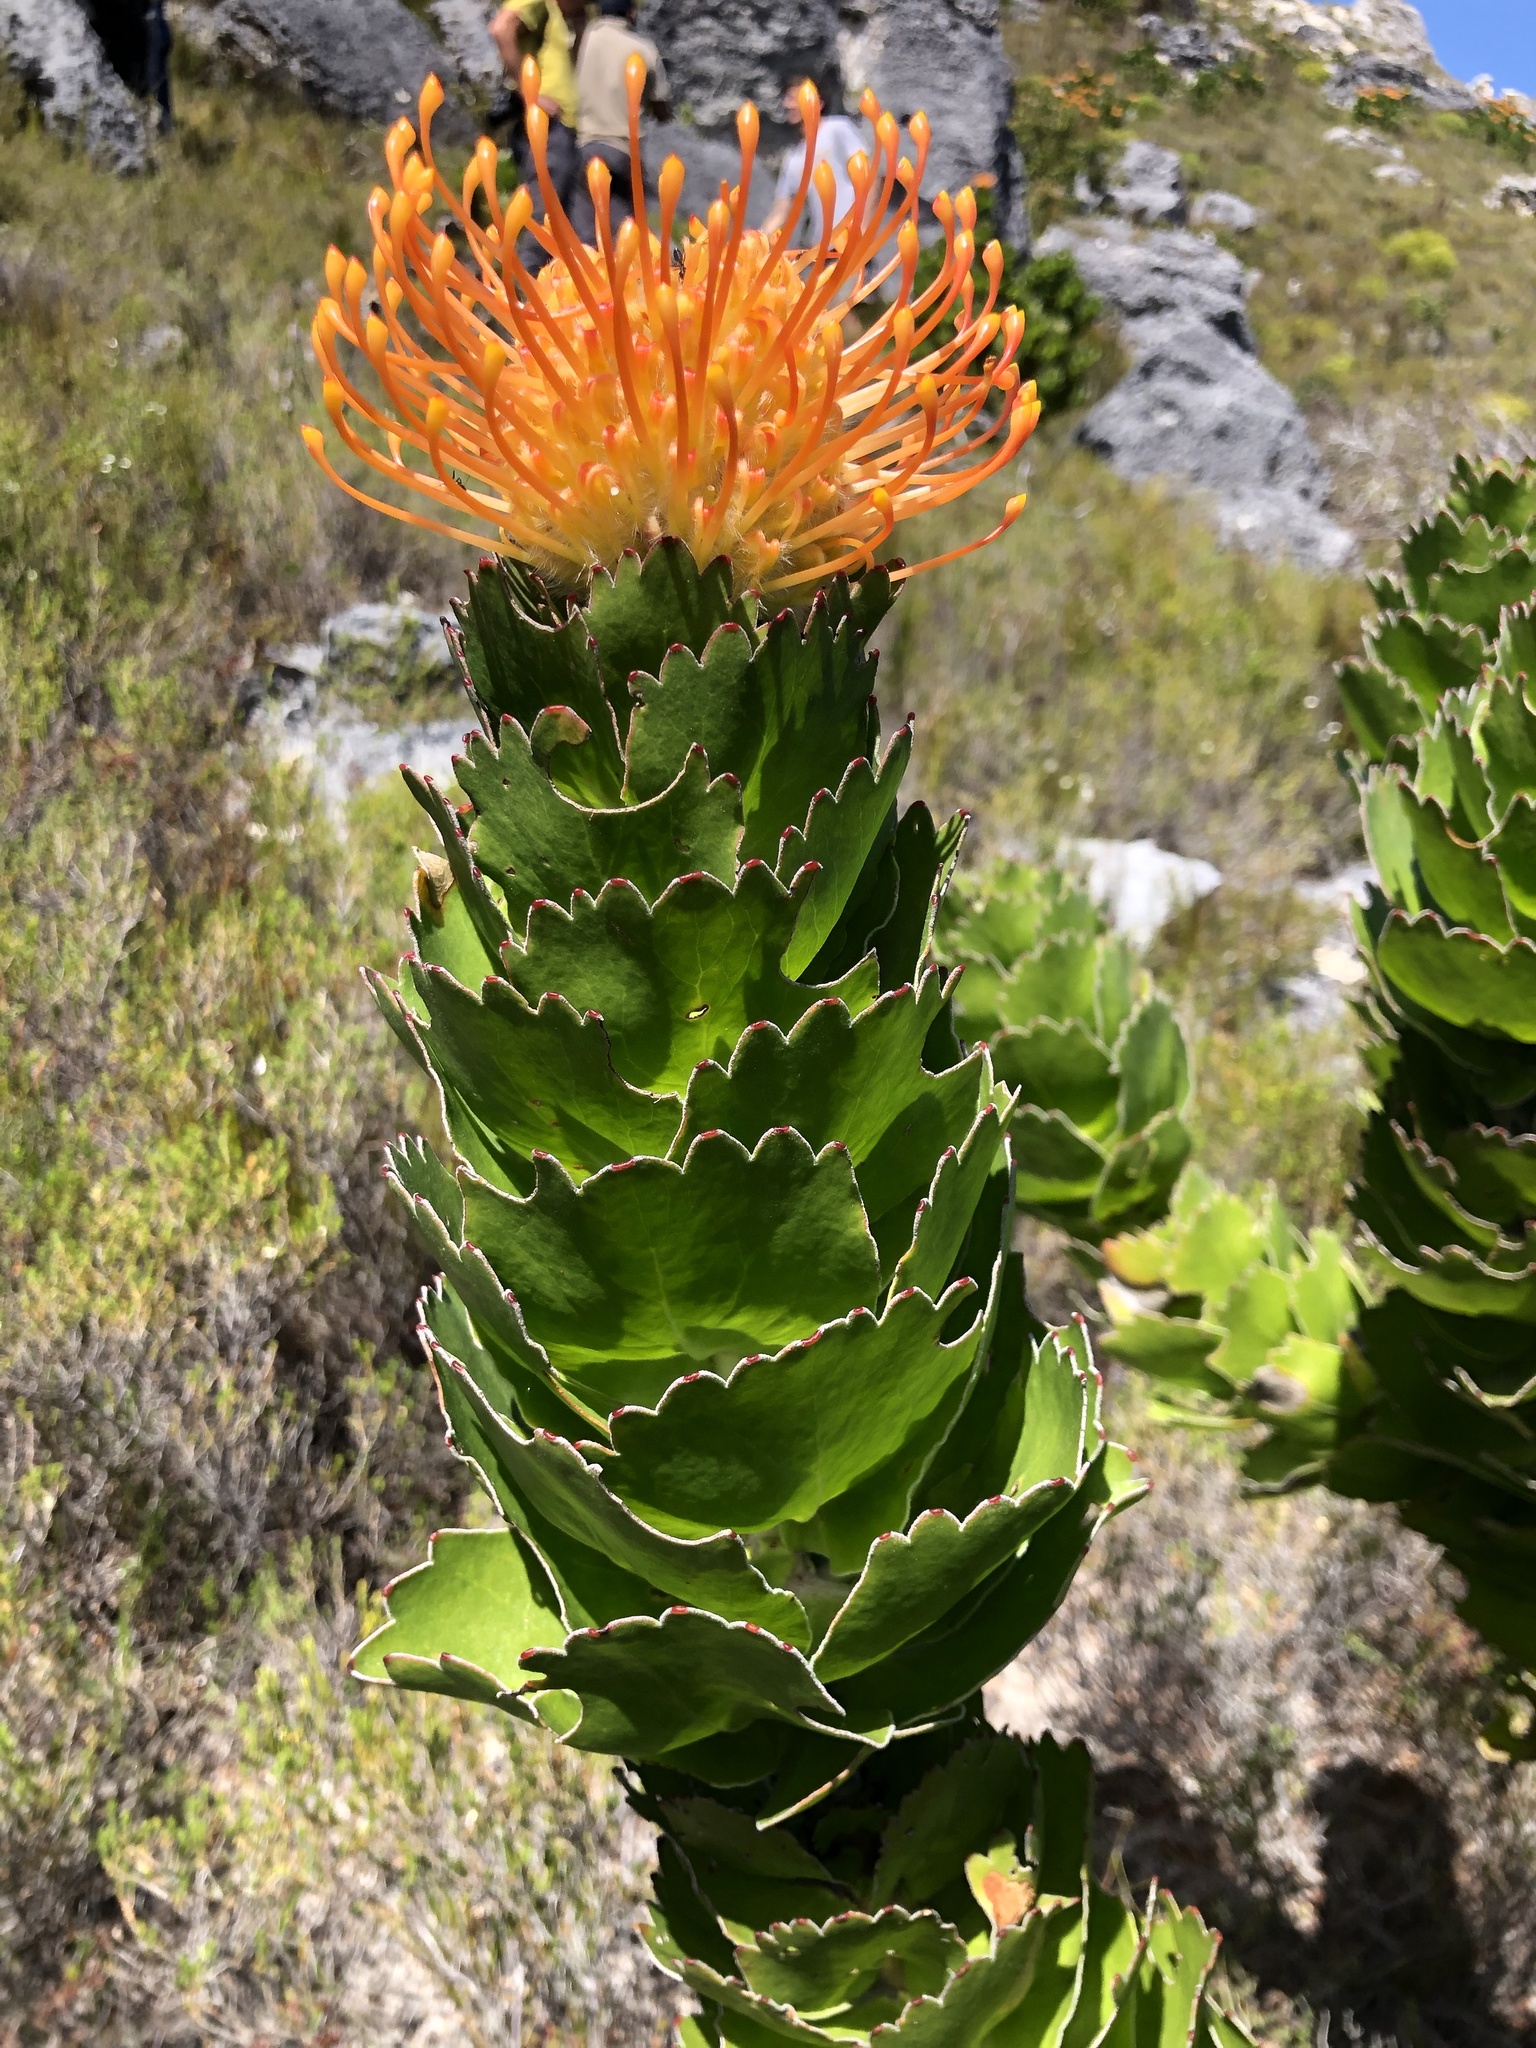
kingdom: Plantae
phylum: Tracheophyta
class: Magnoliopsida
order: Proteales
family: Proteaceae
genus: Leucospermum
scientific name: Leucospermum patersonii
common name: False tree pincushion
